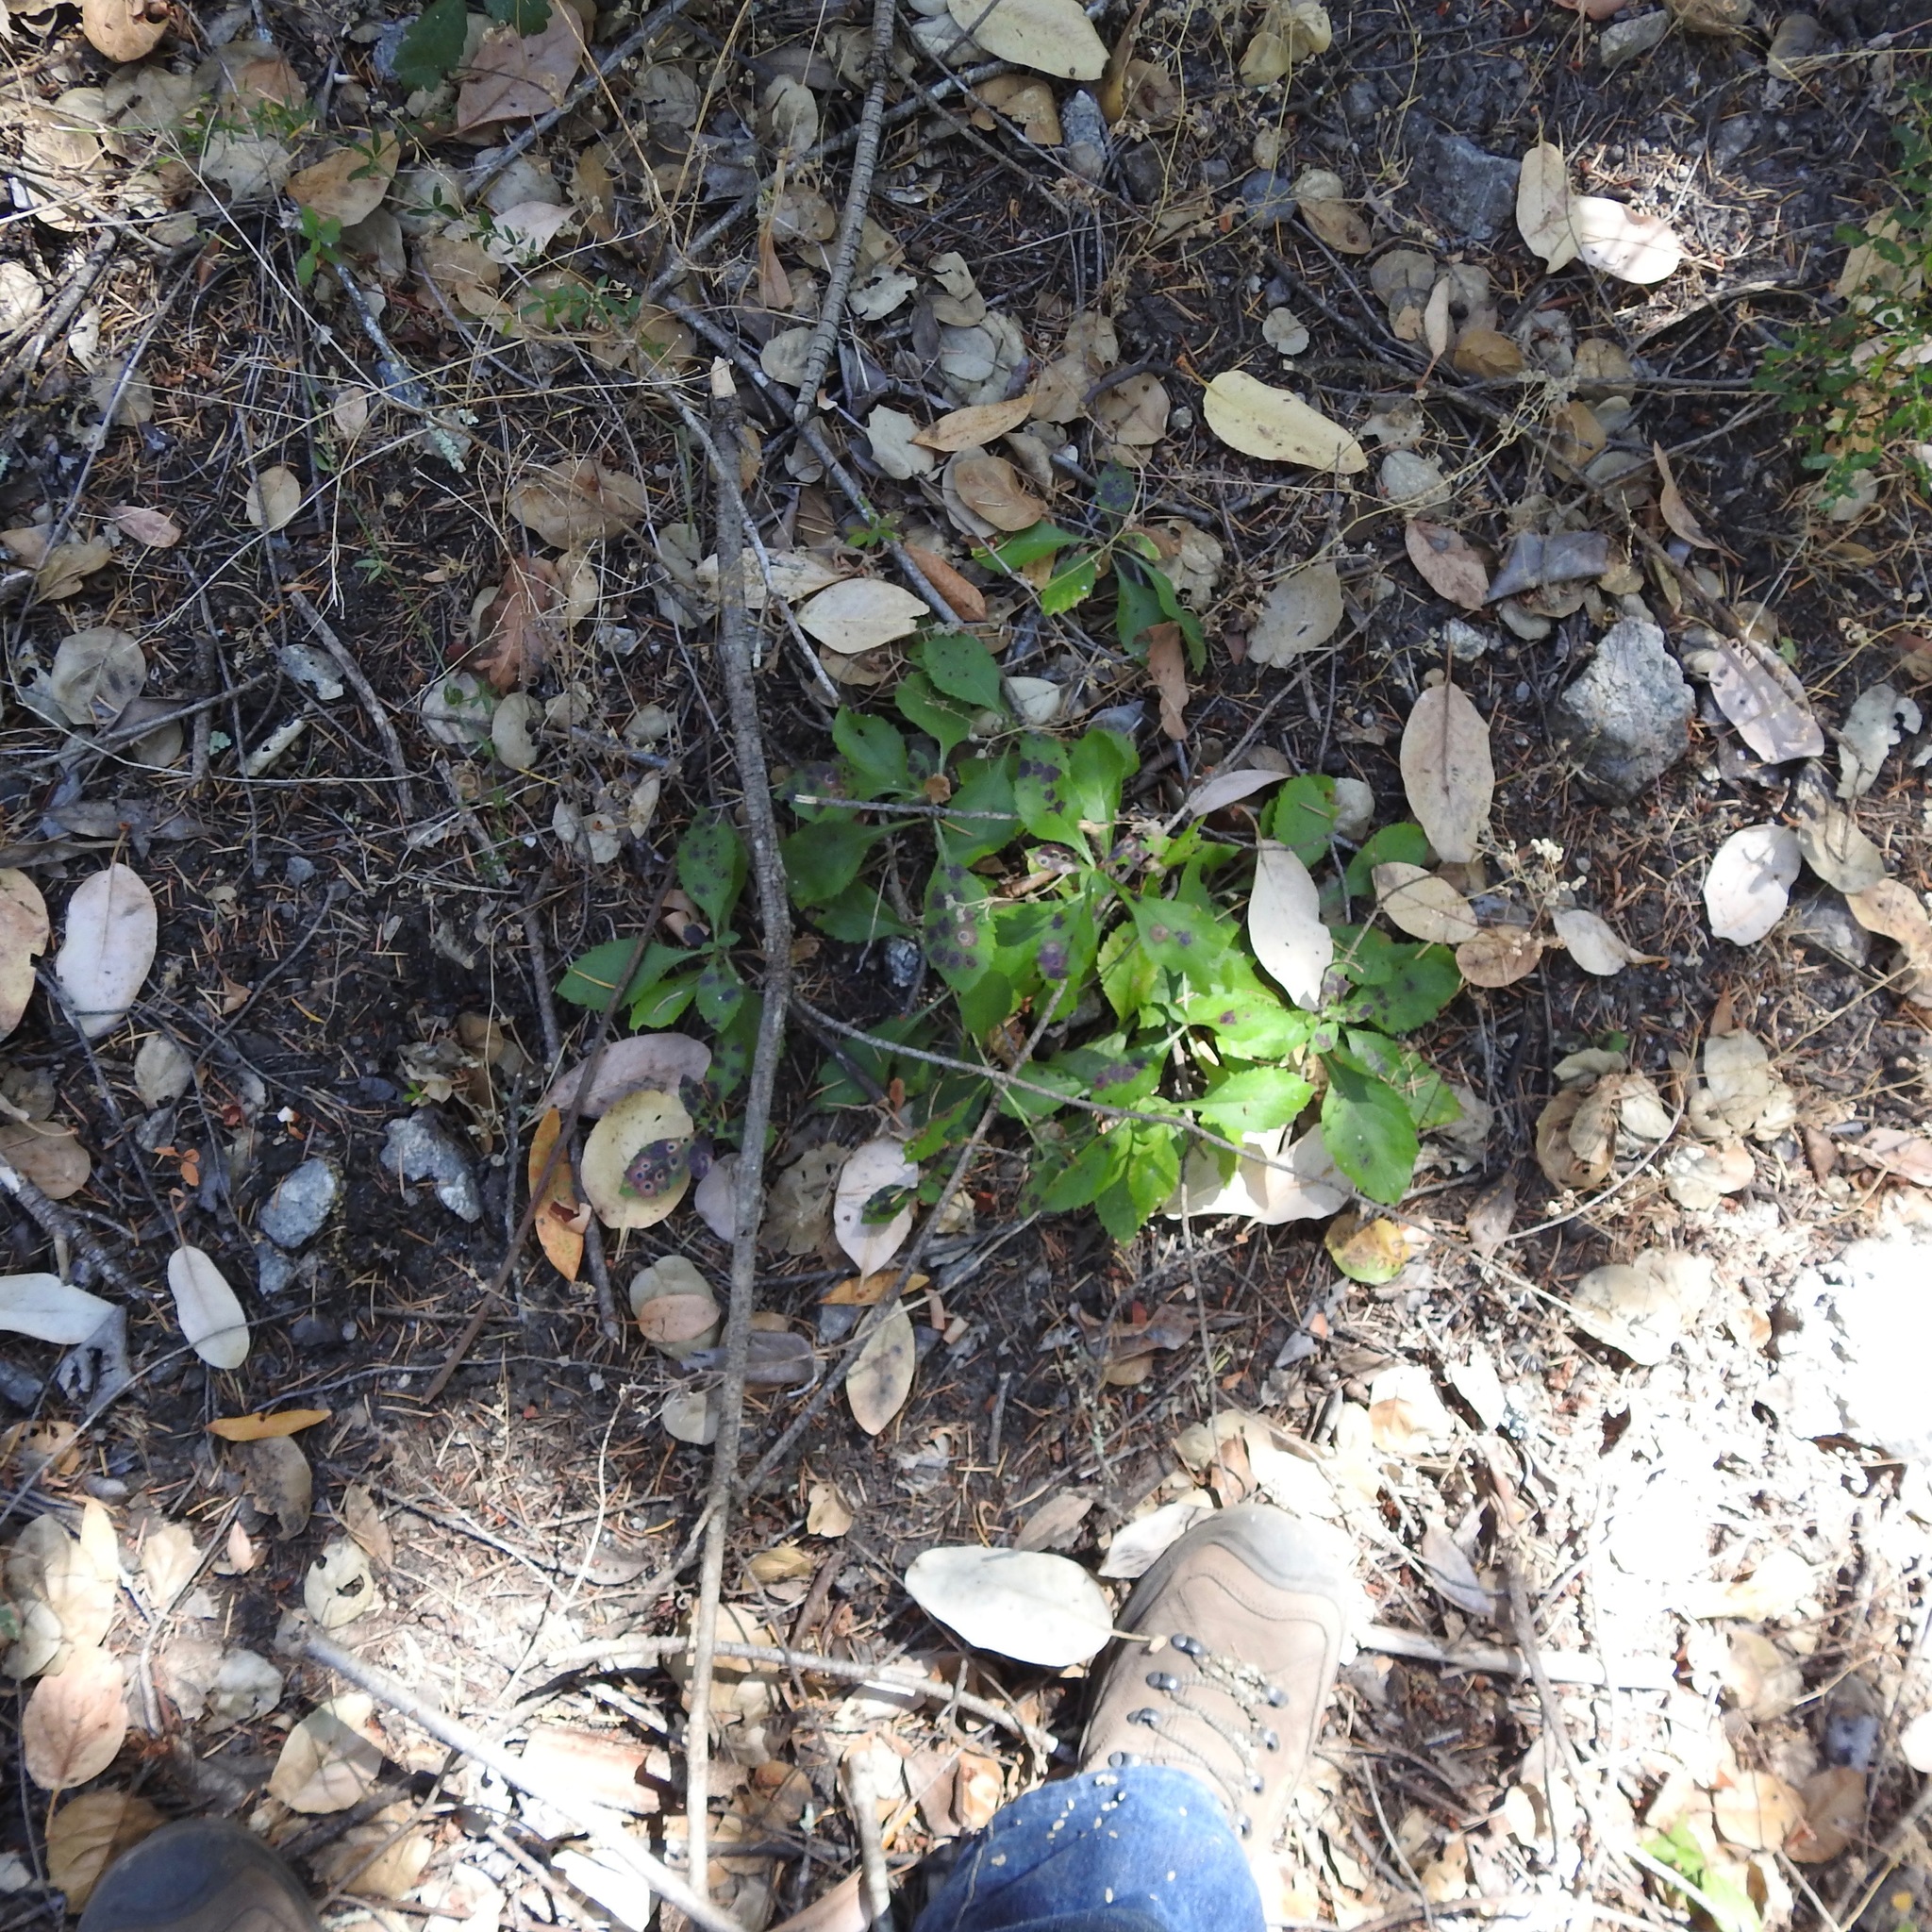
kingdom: Plantae
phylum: Tracheophyta
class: Magnoliopsida
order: Asterales
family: Asteraceae
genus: Eurybia
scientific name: Eurybia radulina
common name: Rough-leaved aster
